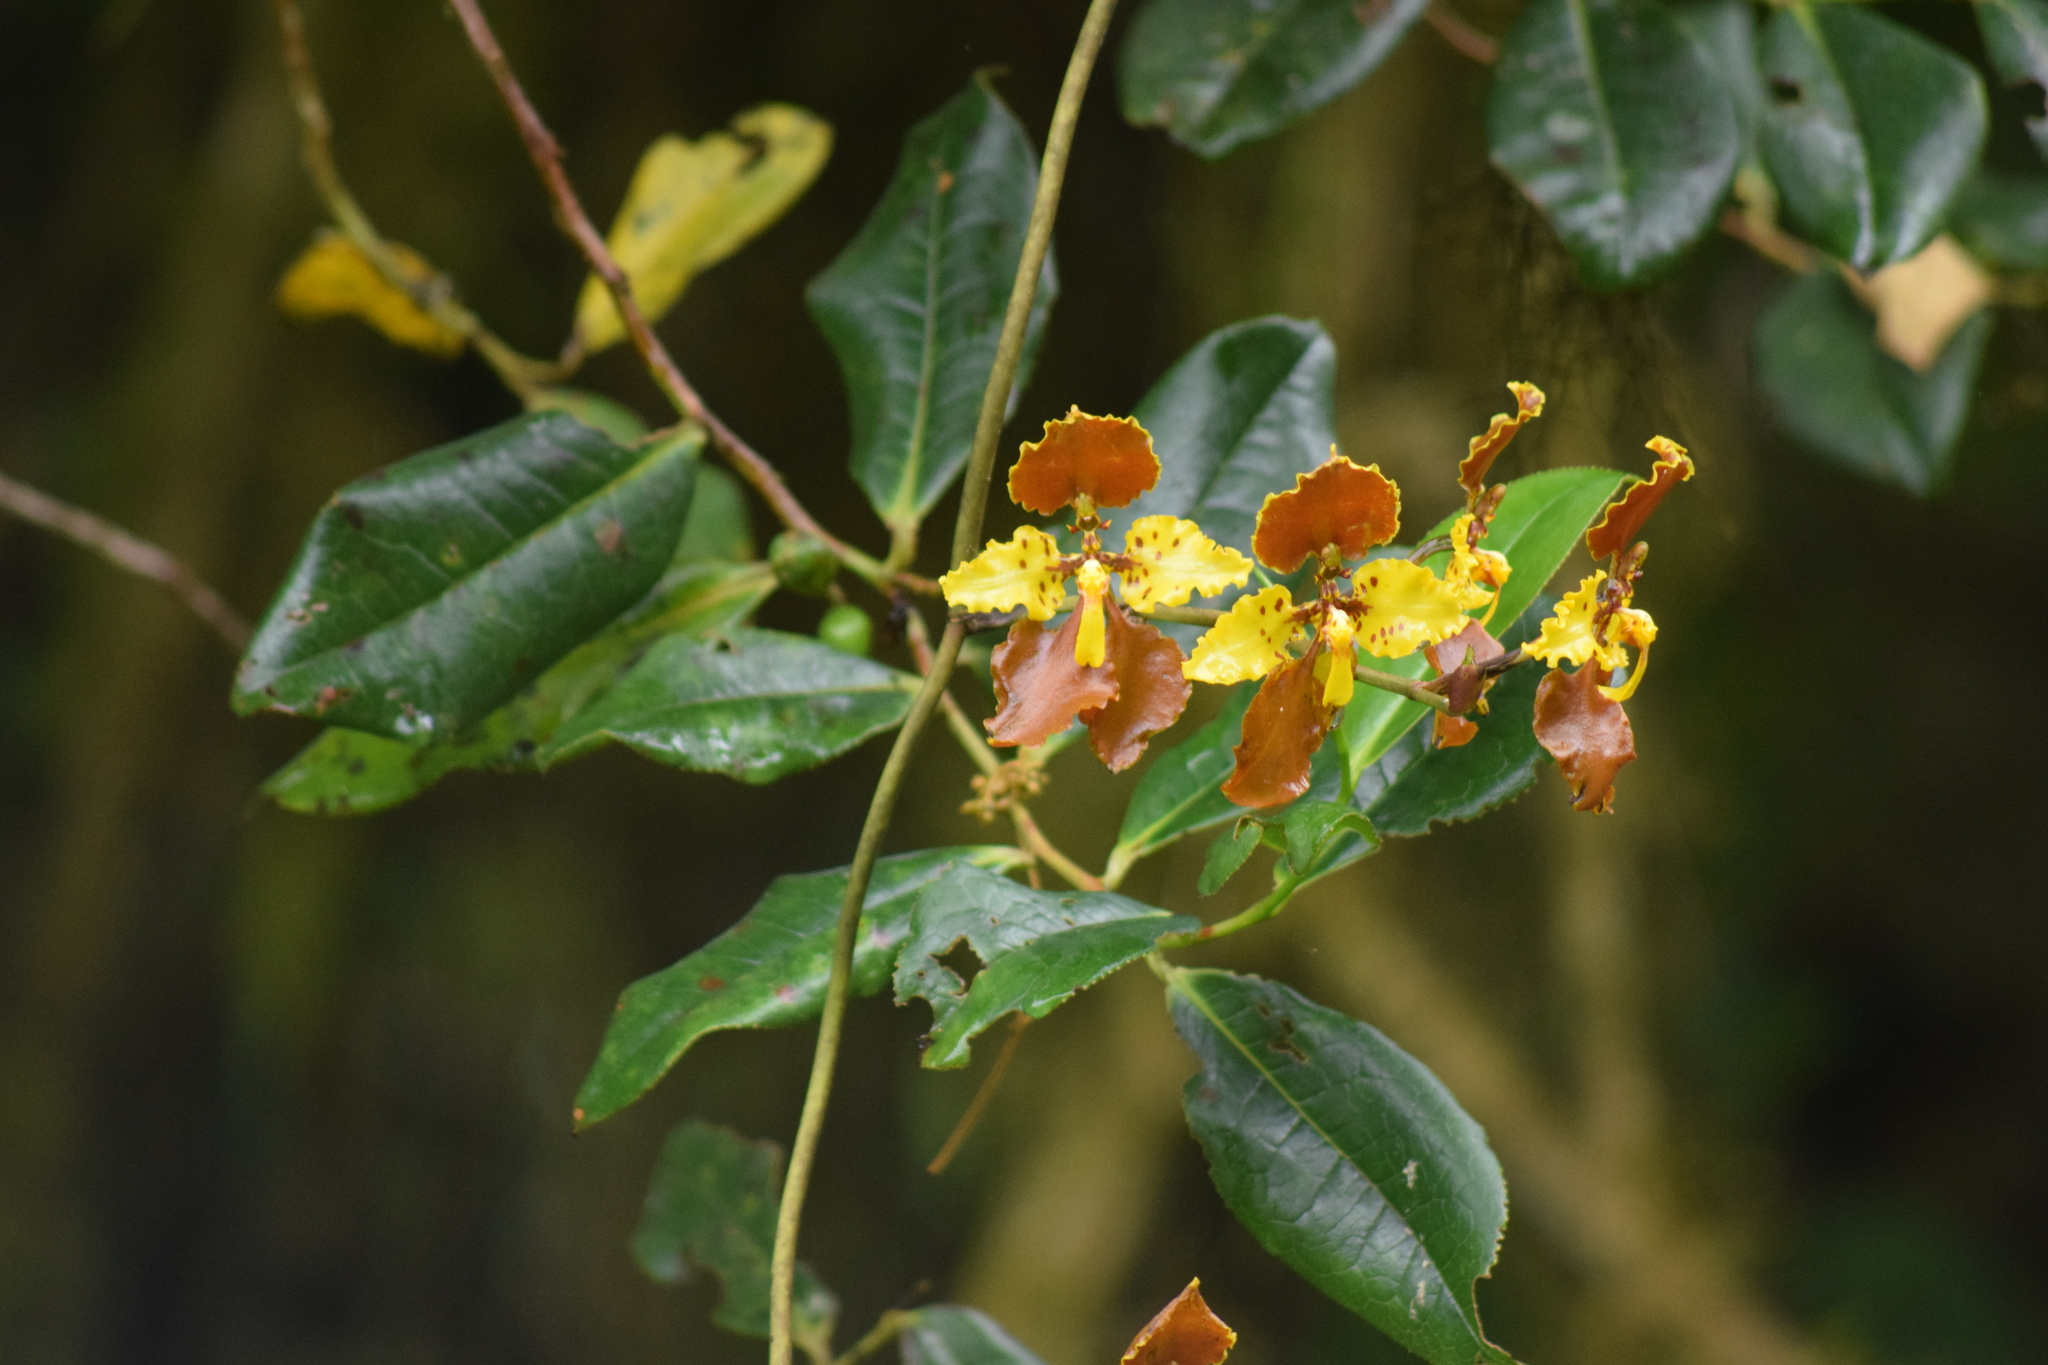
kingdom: Plantae
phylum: Tracheophyta
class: Liliopsida
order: Asparagales
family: Orchidaceae
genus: Cyrtochilum
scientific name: Cyrtochilum serratum
